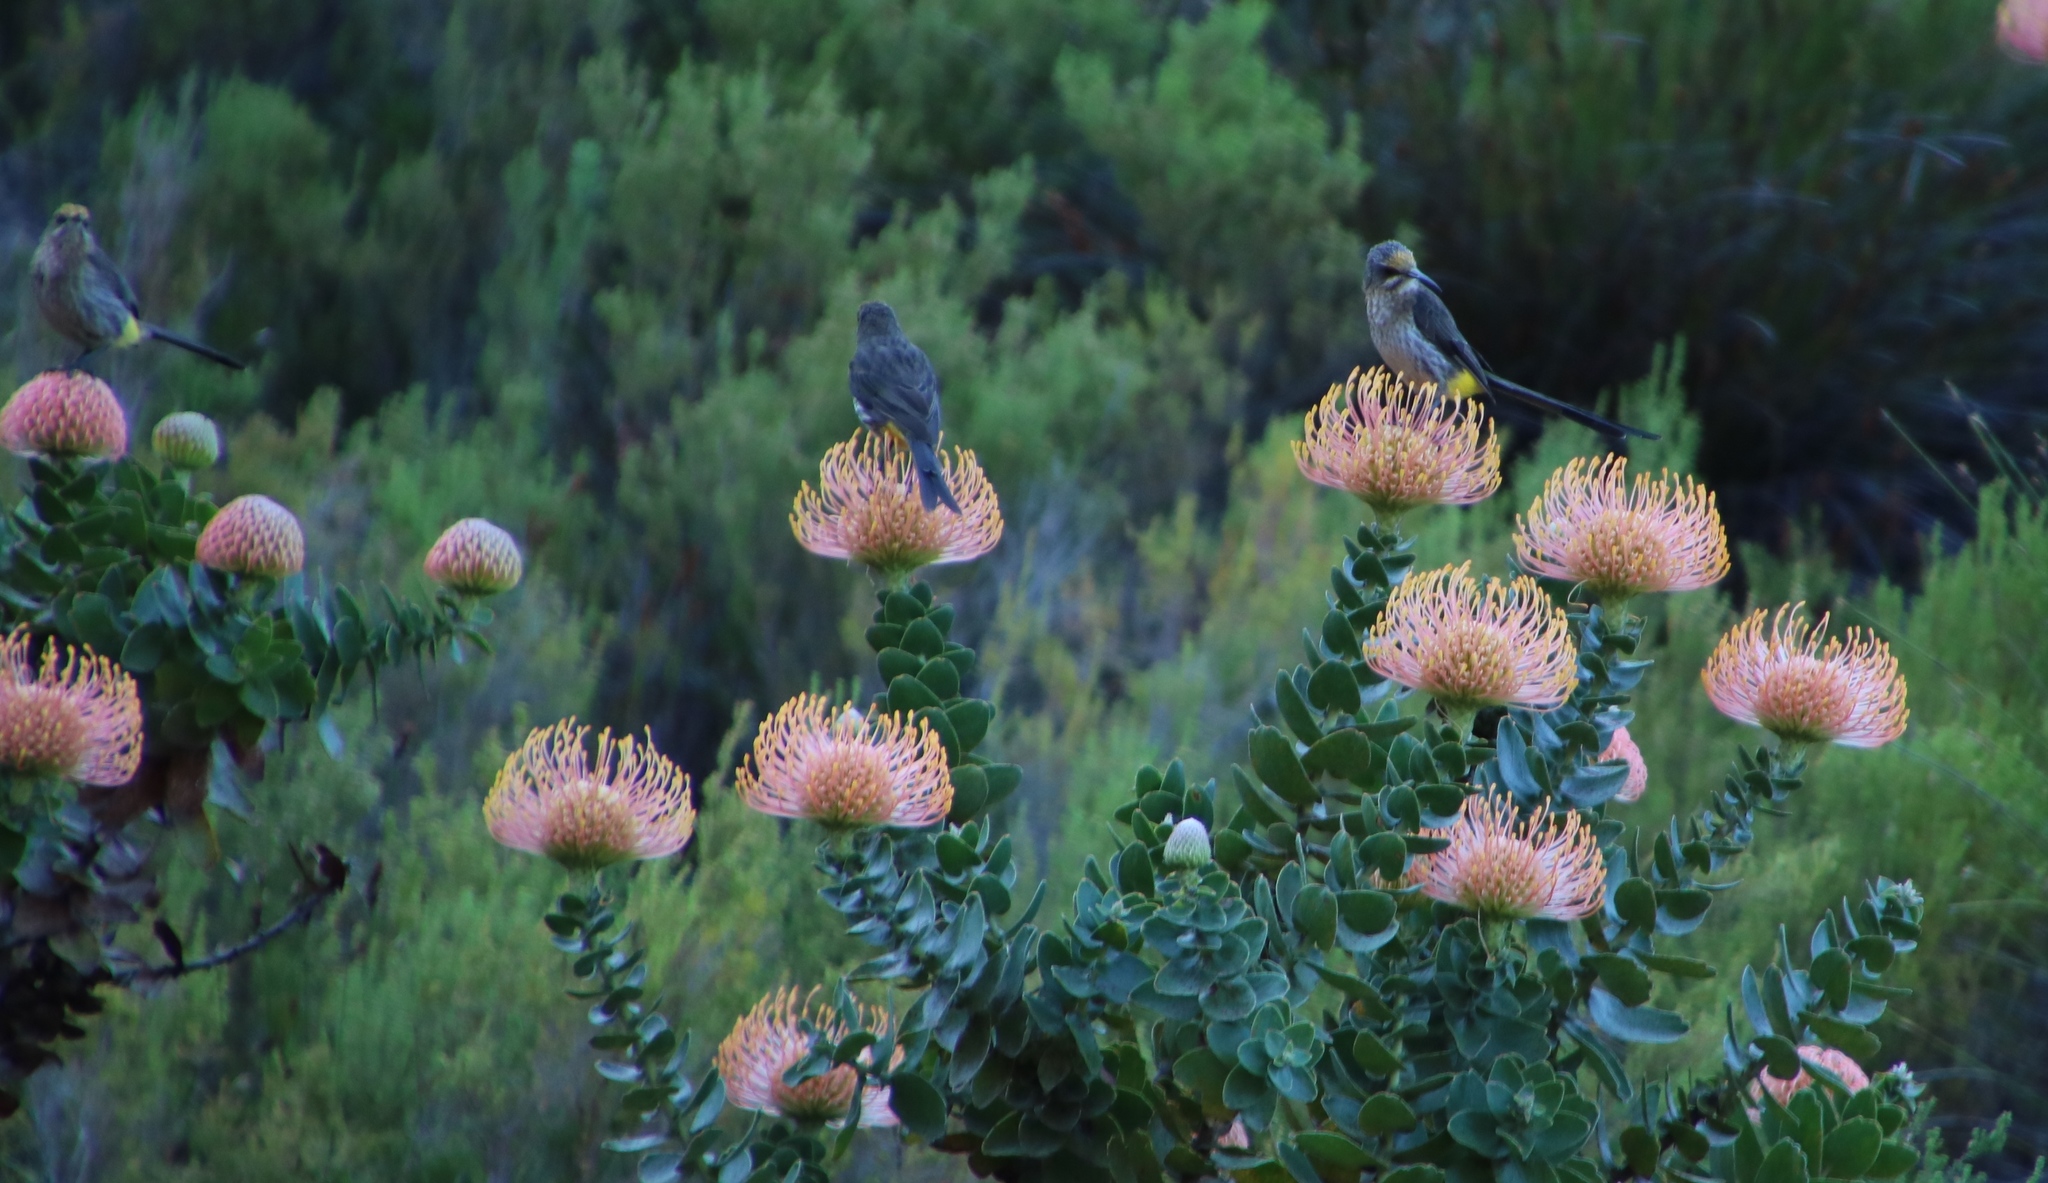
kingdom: Animalia
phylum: Chordata
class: Aves
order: Passeriformes
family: Promeropidae
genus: Promerops
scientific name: Promerops cafer
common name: Cape sugarbird
